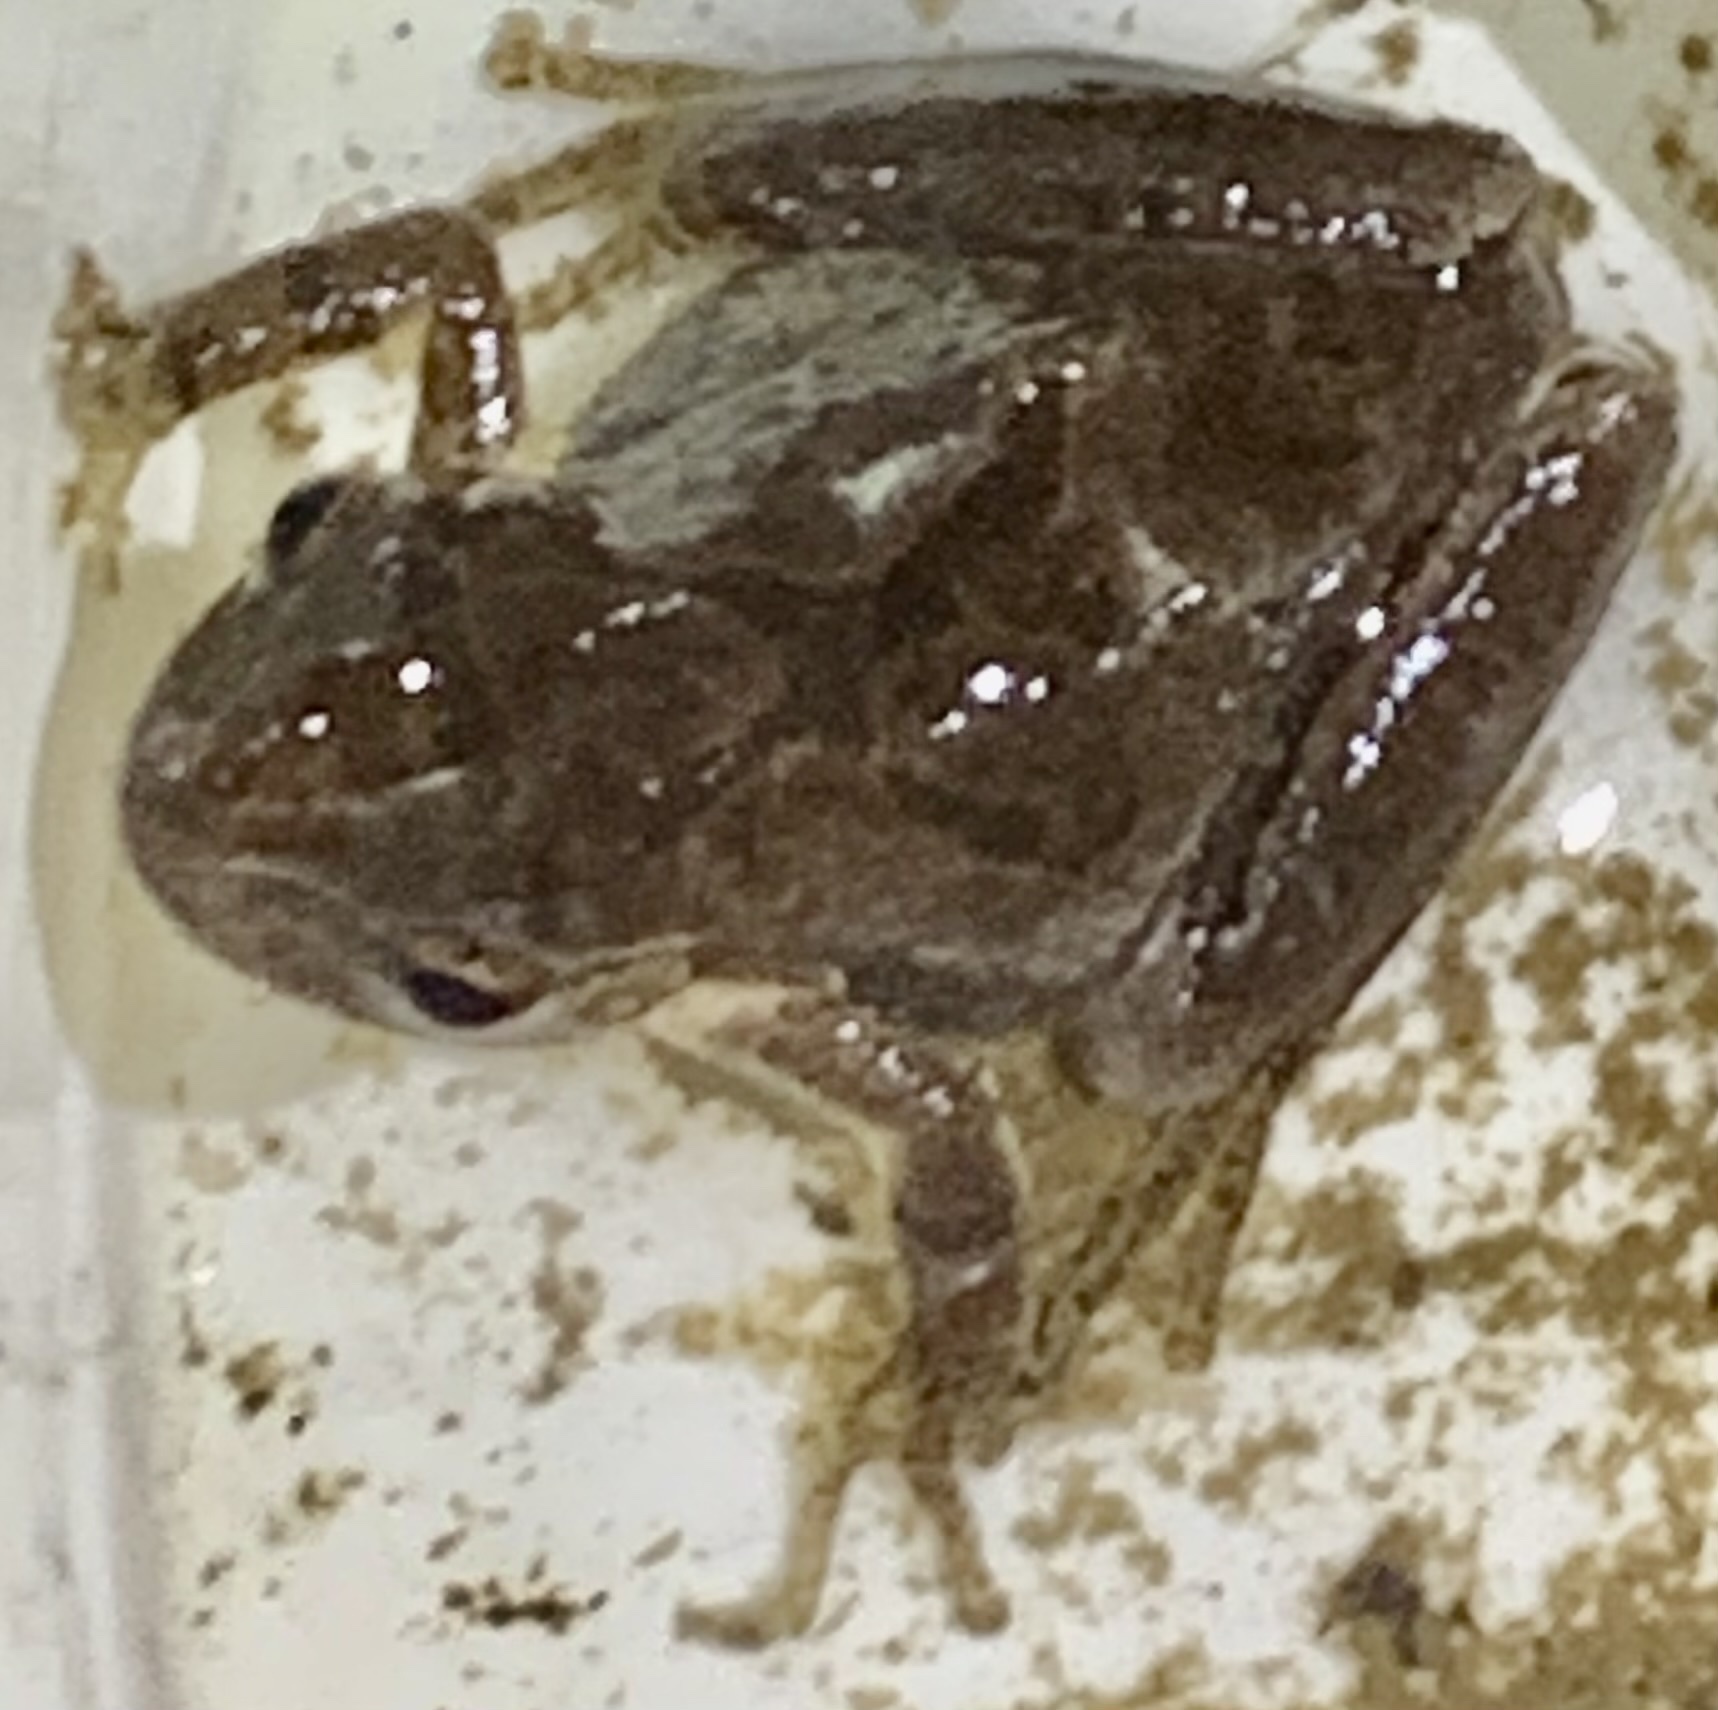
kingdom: Animalia
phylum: Chordata
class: Amphibia
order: Anura
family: Hylidae
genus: Pseudacris
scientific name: Pseudacris crucifer
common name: Spring peeper
